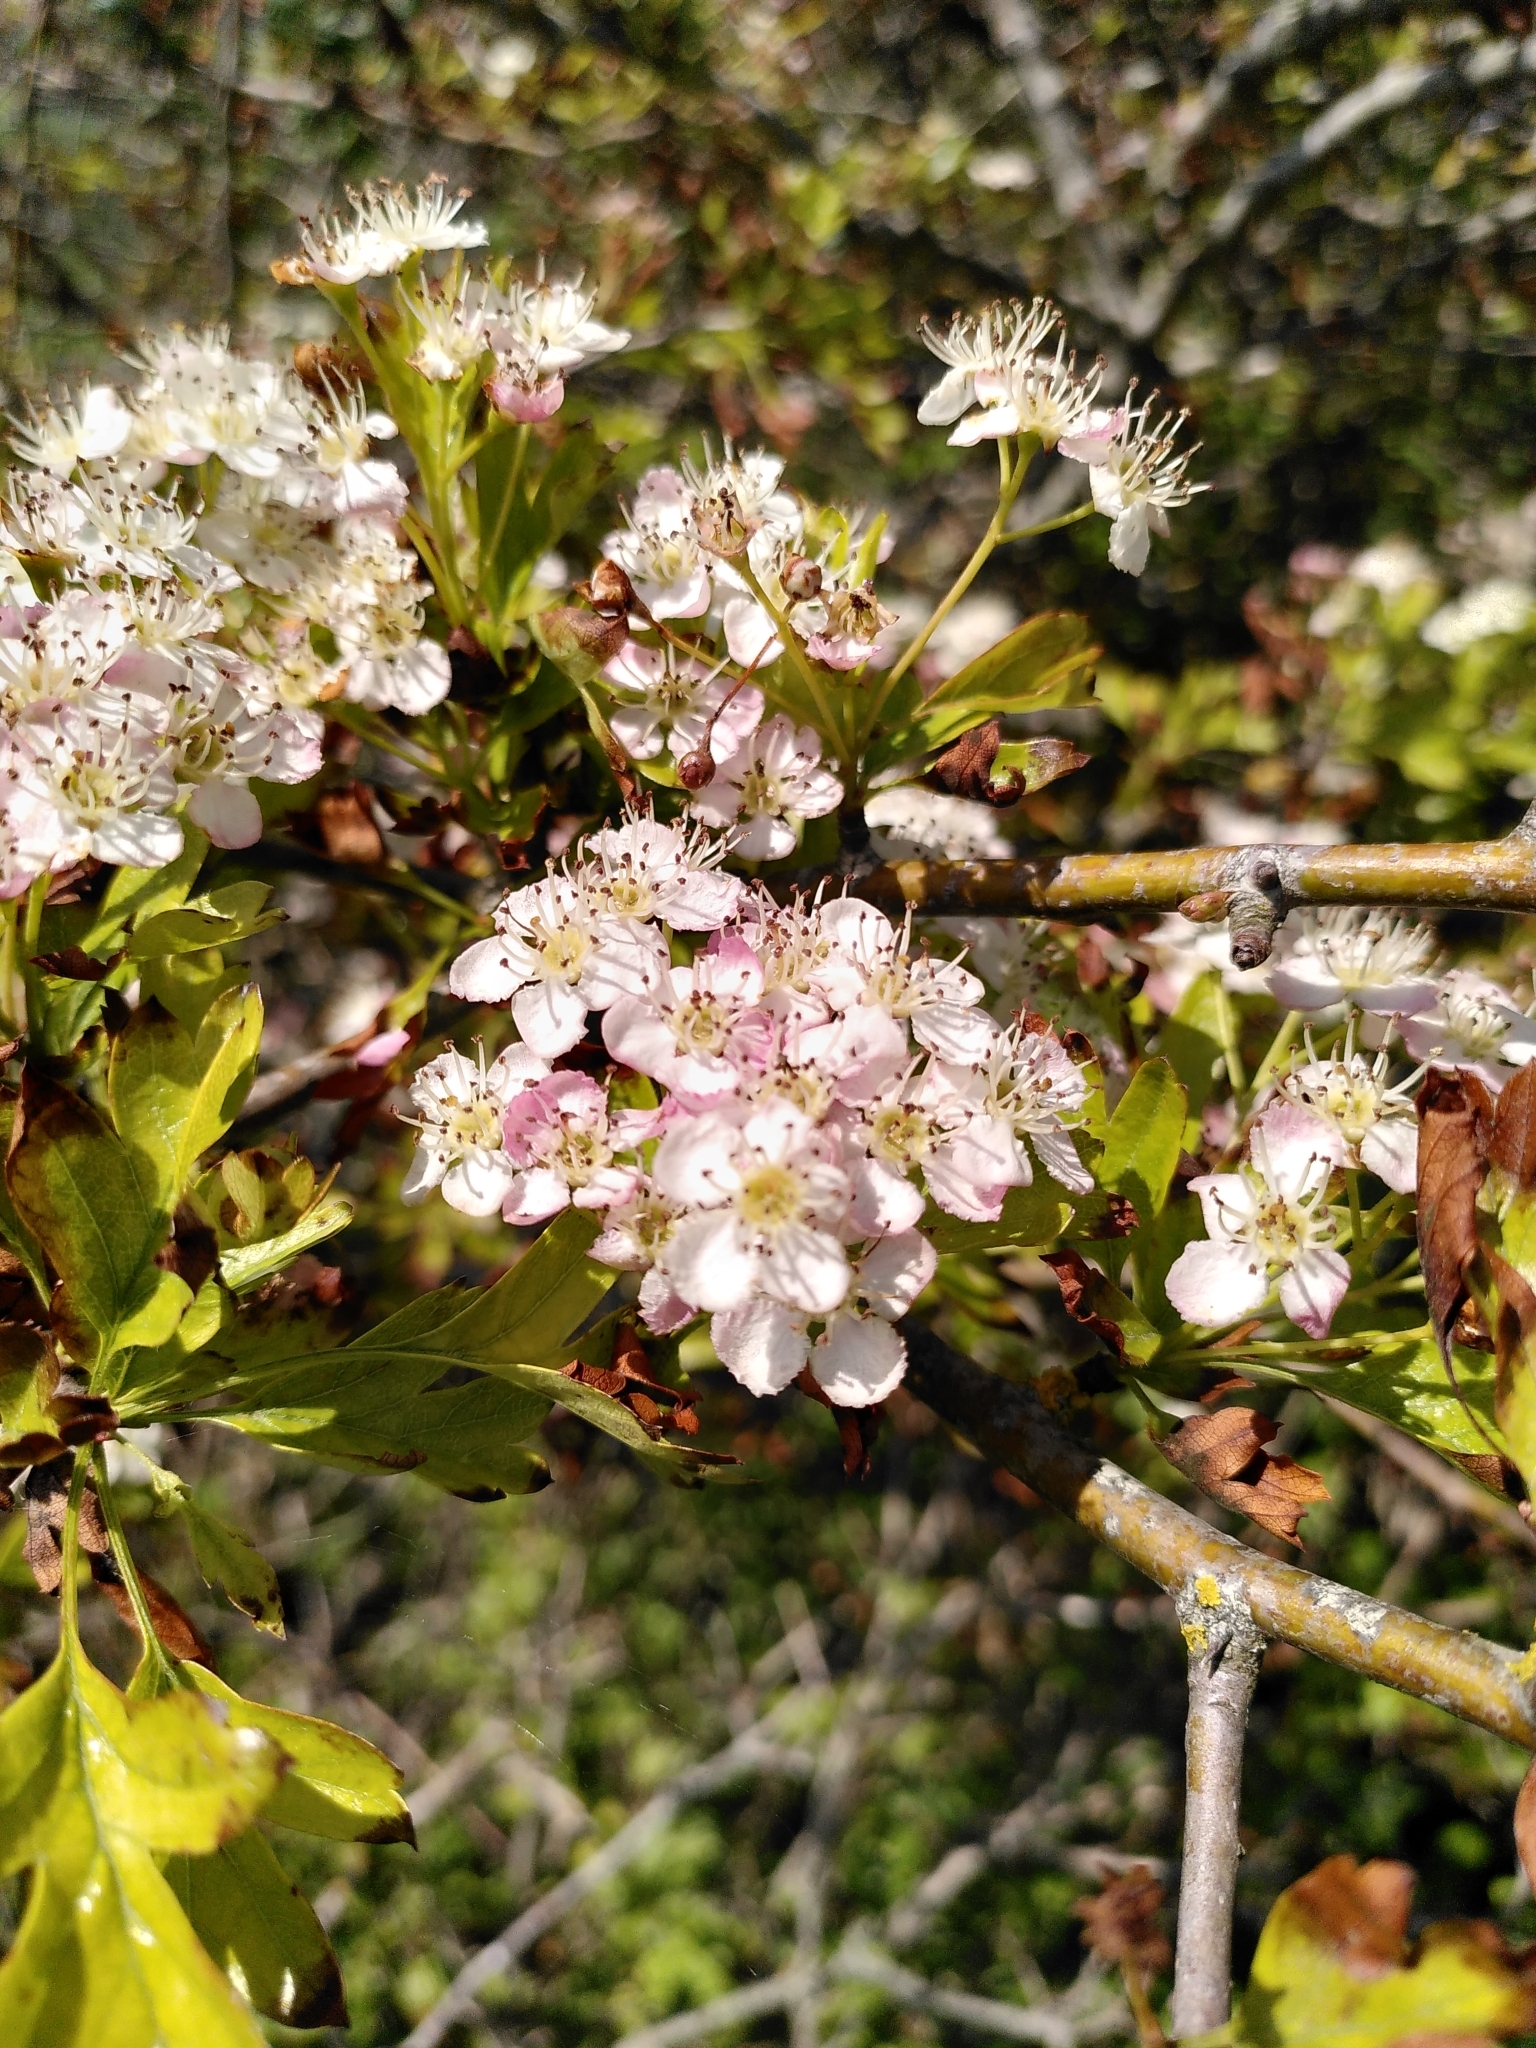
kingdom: Plantae
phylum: Tracheophyta
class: Magnoliopsida
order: Rosales
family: Rosaceae
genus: Crataegus
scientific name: Crataegus monogyna
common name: Hawthorn
